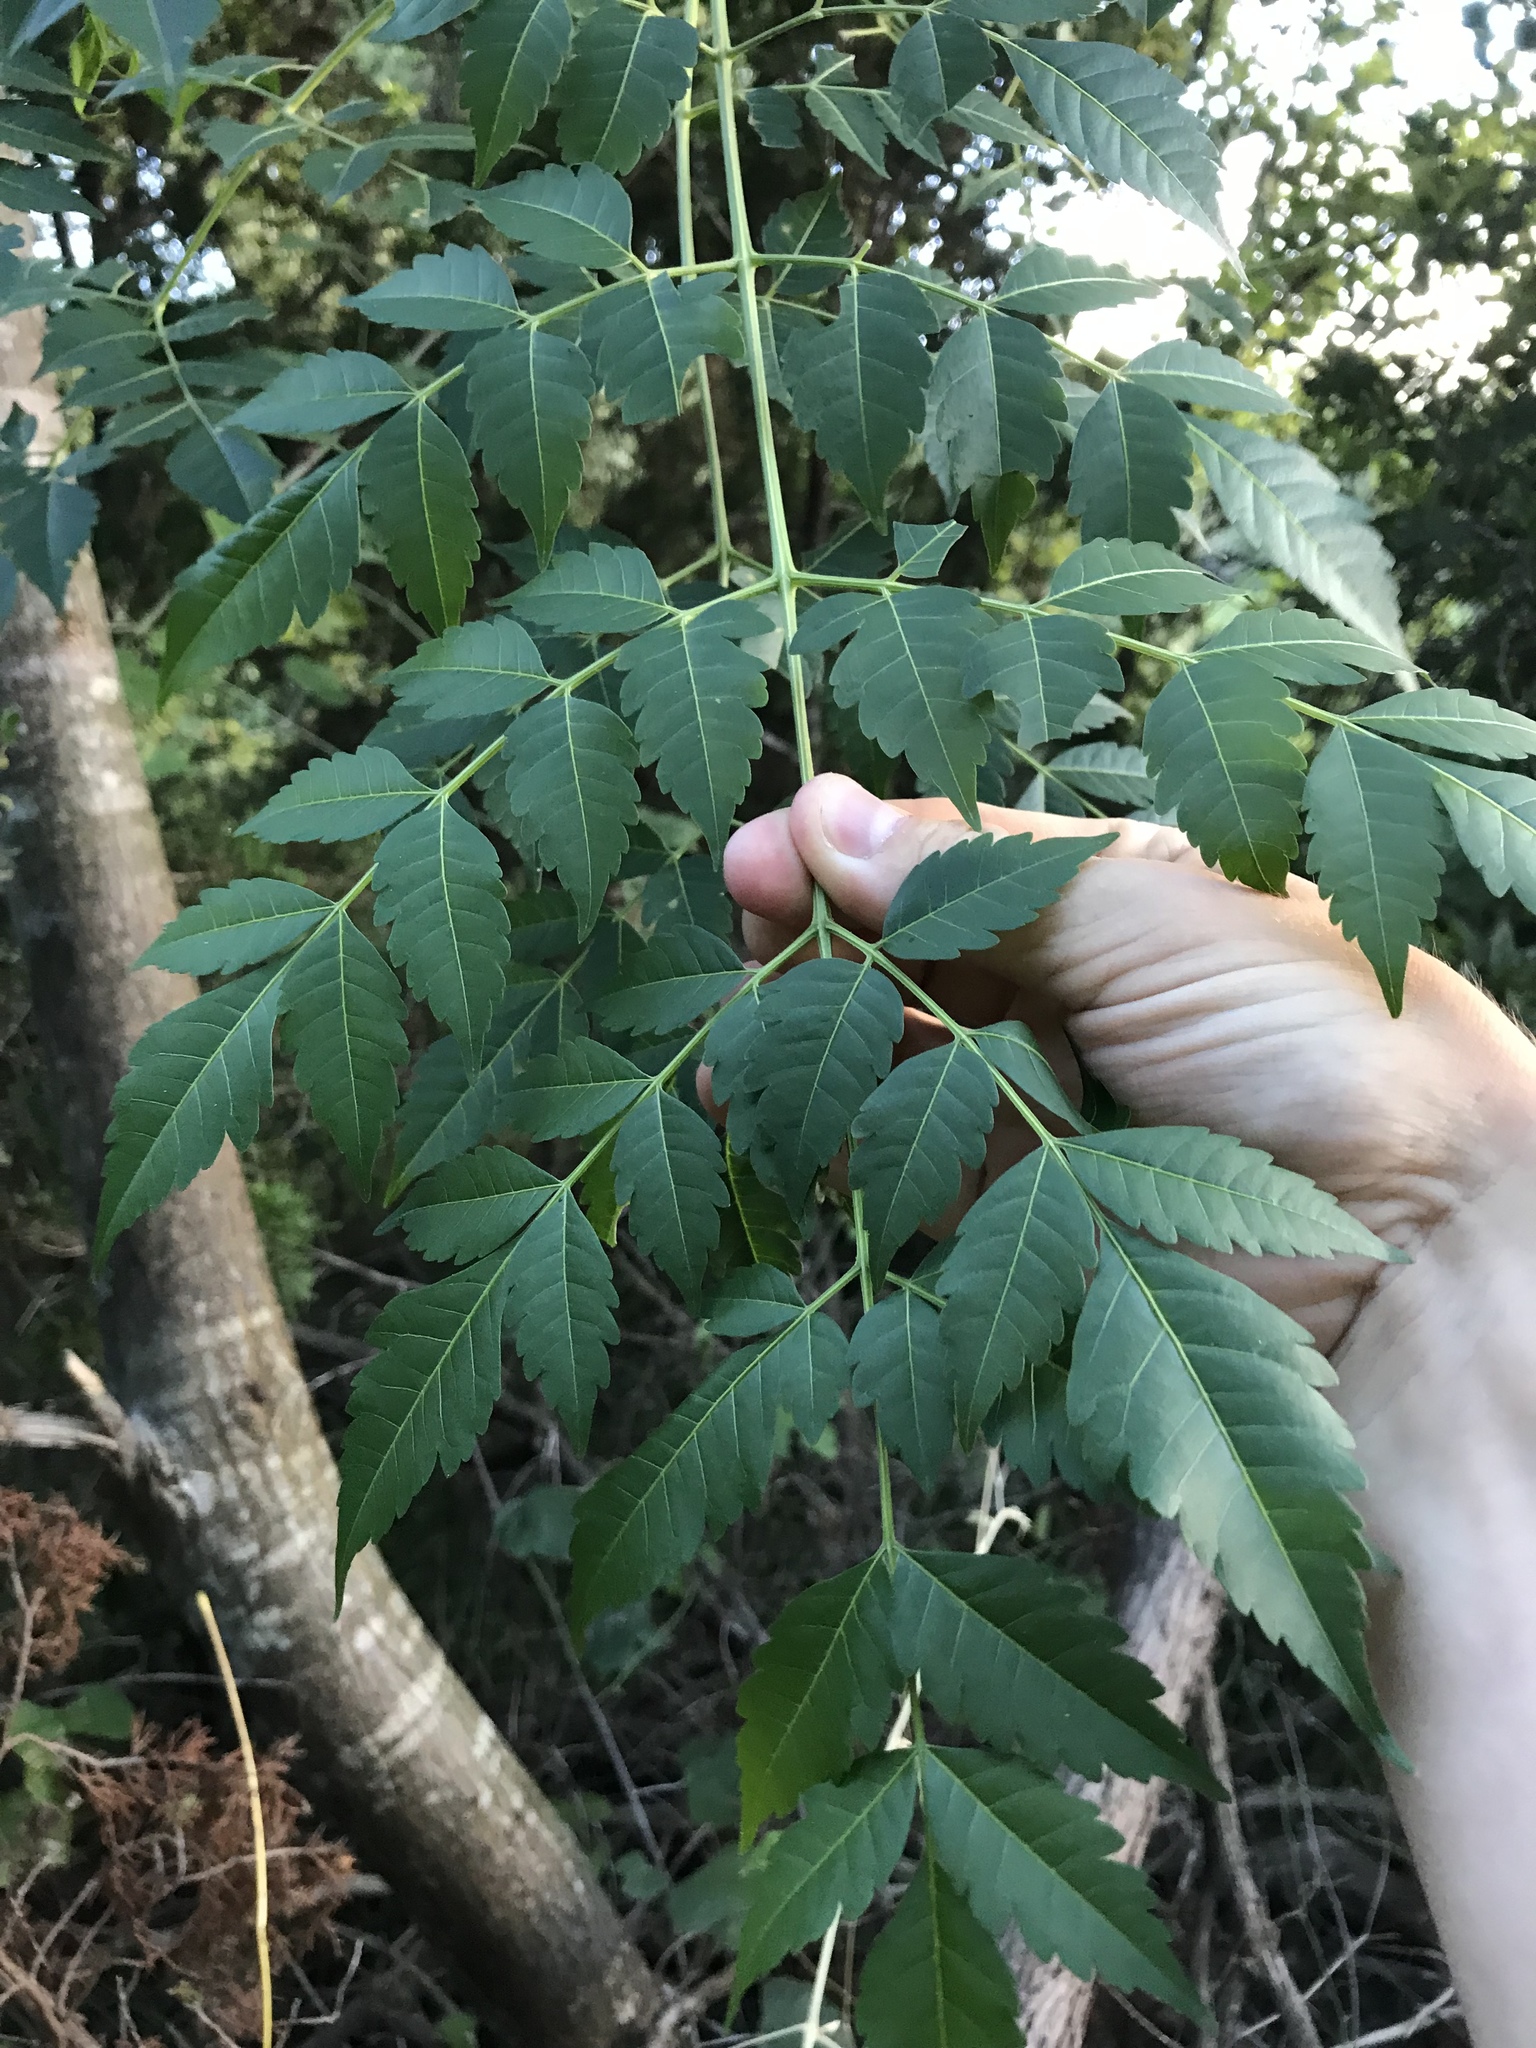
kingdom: Plantae
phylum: Tracheophyta
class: Magnoliopsida
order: Sapindales
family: Meliaceae
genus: Melia
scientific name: Melia azedarach
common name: Chinaberrytree
